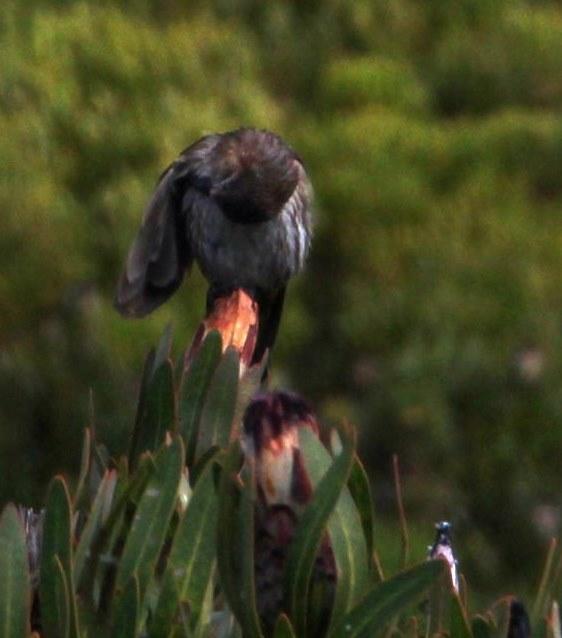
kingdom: Animalia
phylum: Chordata
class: Aves
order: Passeriformes
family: Promeropidae
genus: Promerops
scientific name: Promerops cafer
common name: Cape sugarbird
